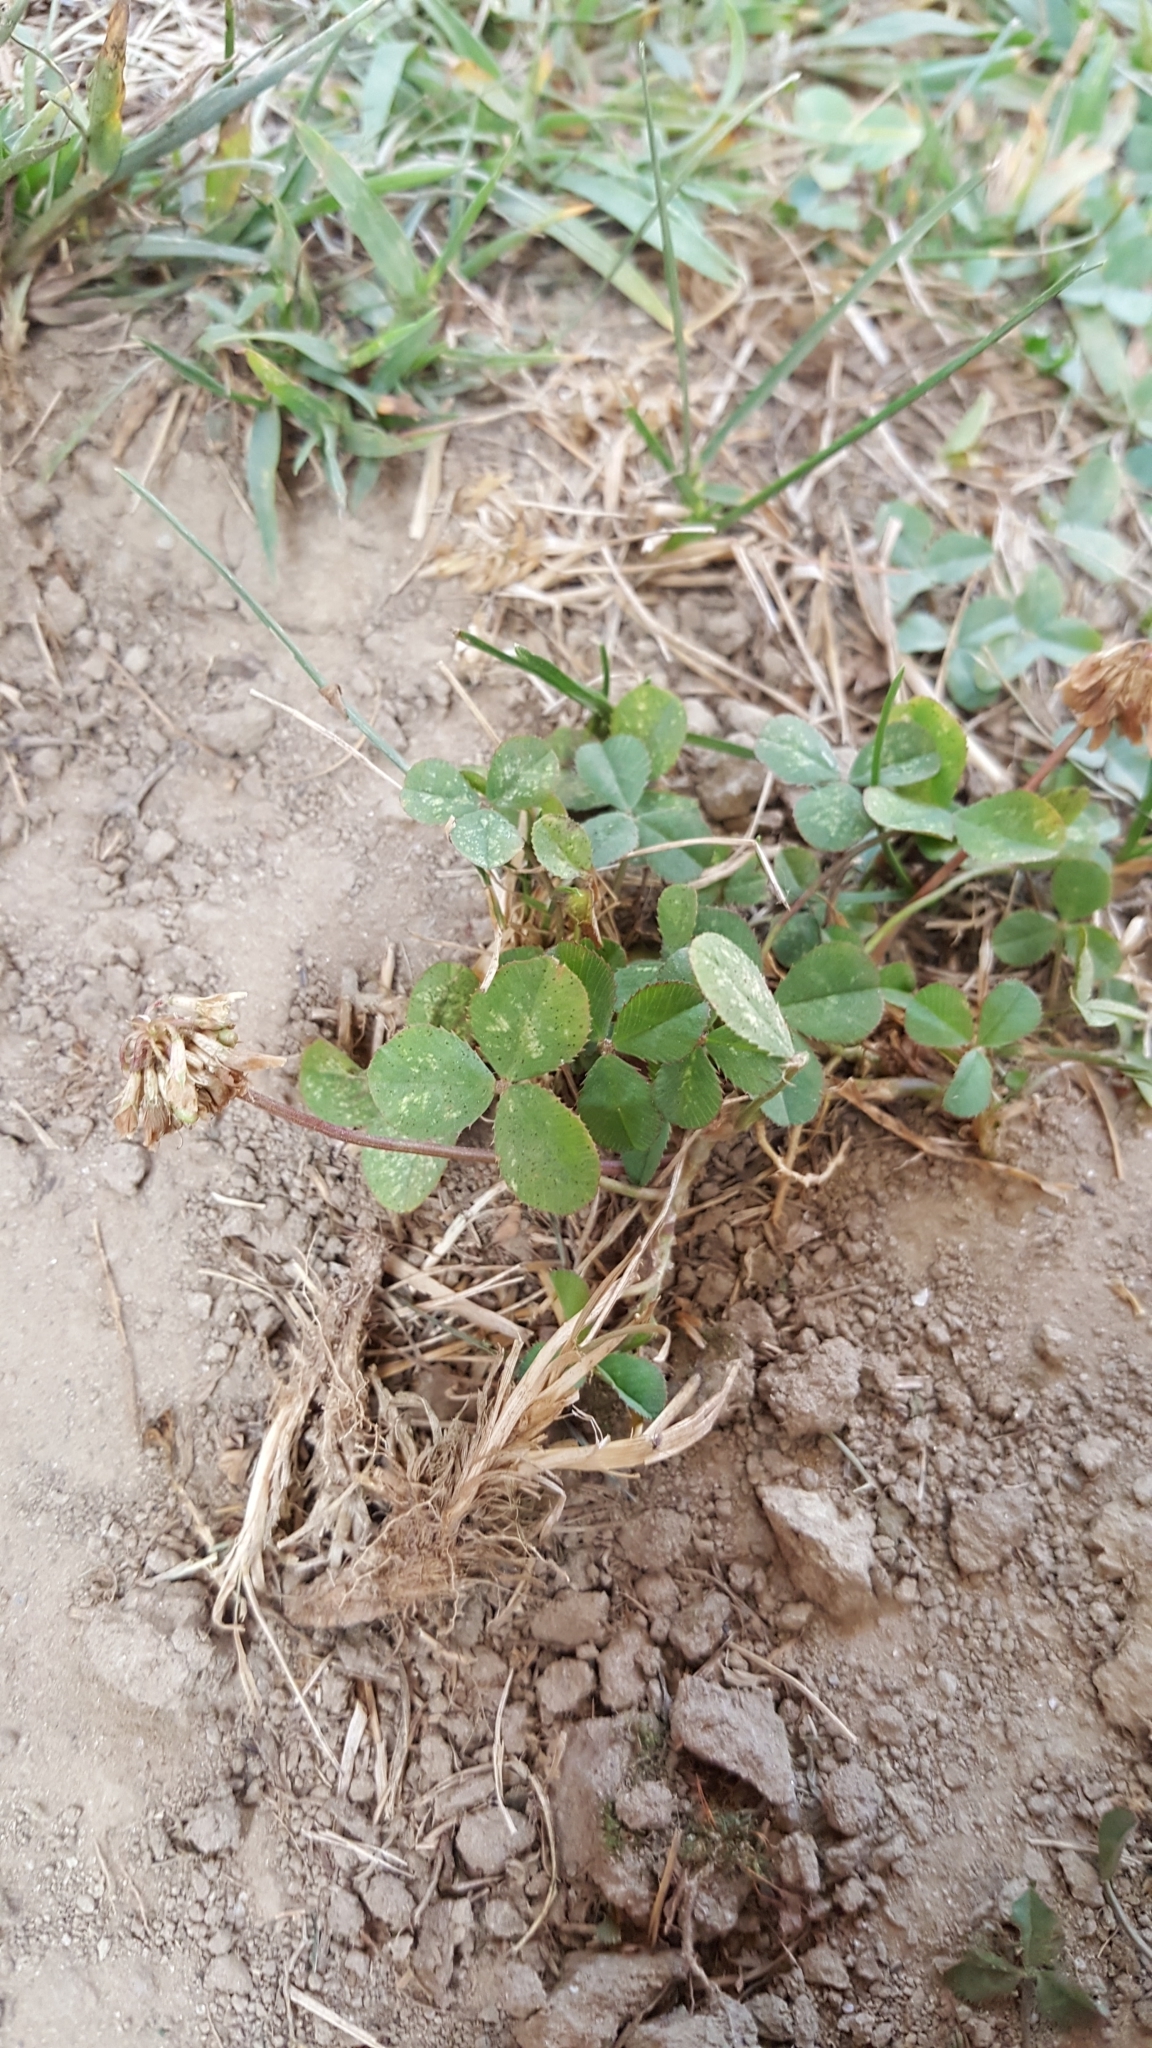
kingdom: Plantae
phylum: Tracheophyta
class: Magnoliopsida
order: Fabales
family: Fabaceae
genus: Trifolium
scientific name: Trifolium repens
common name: White clover
